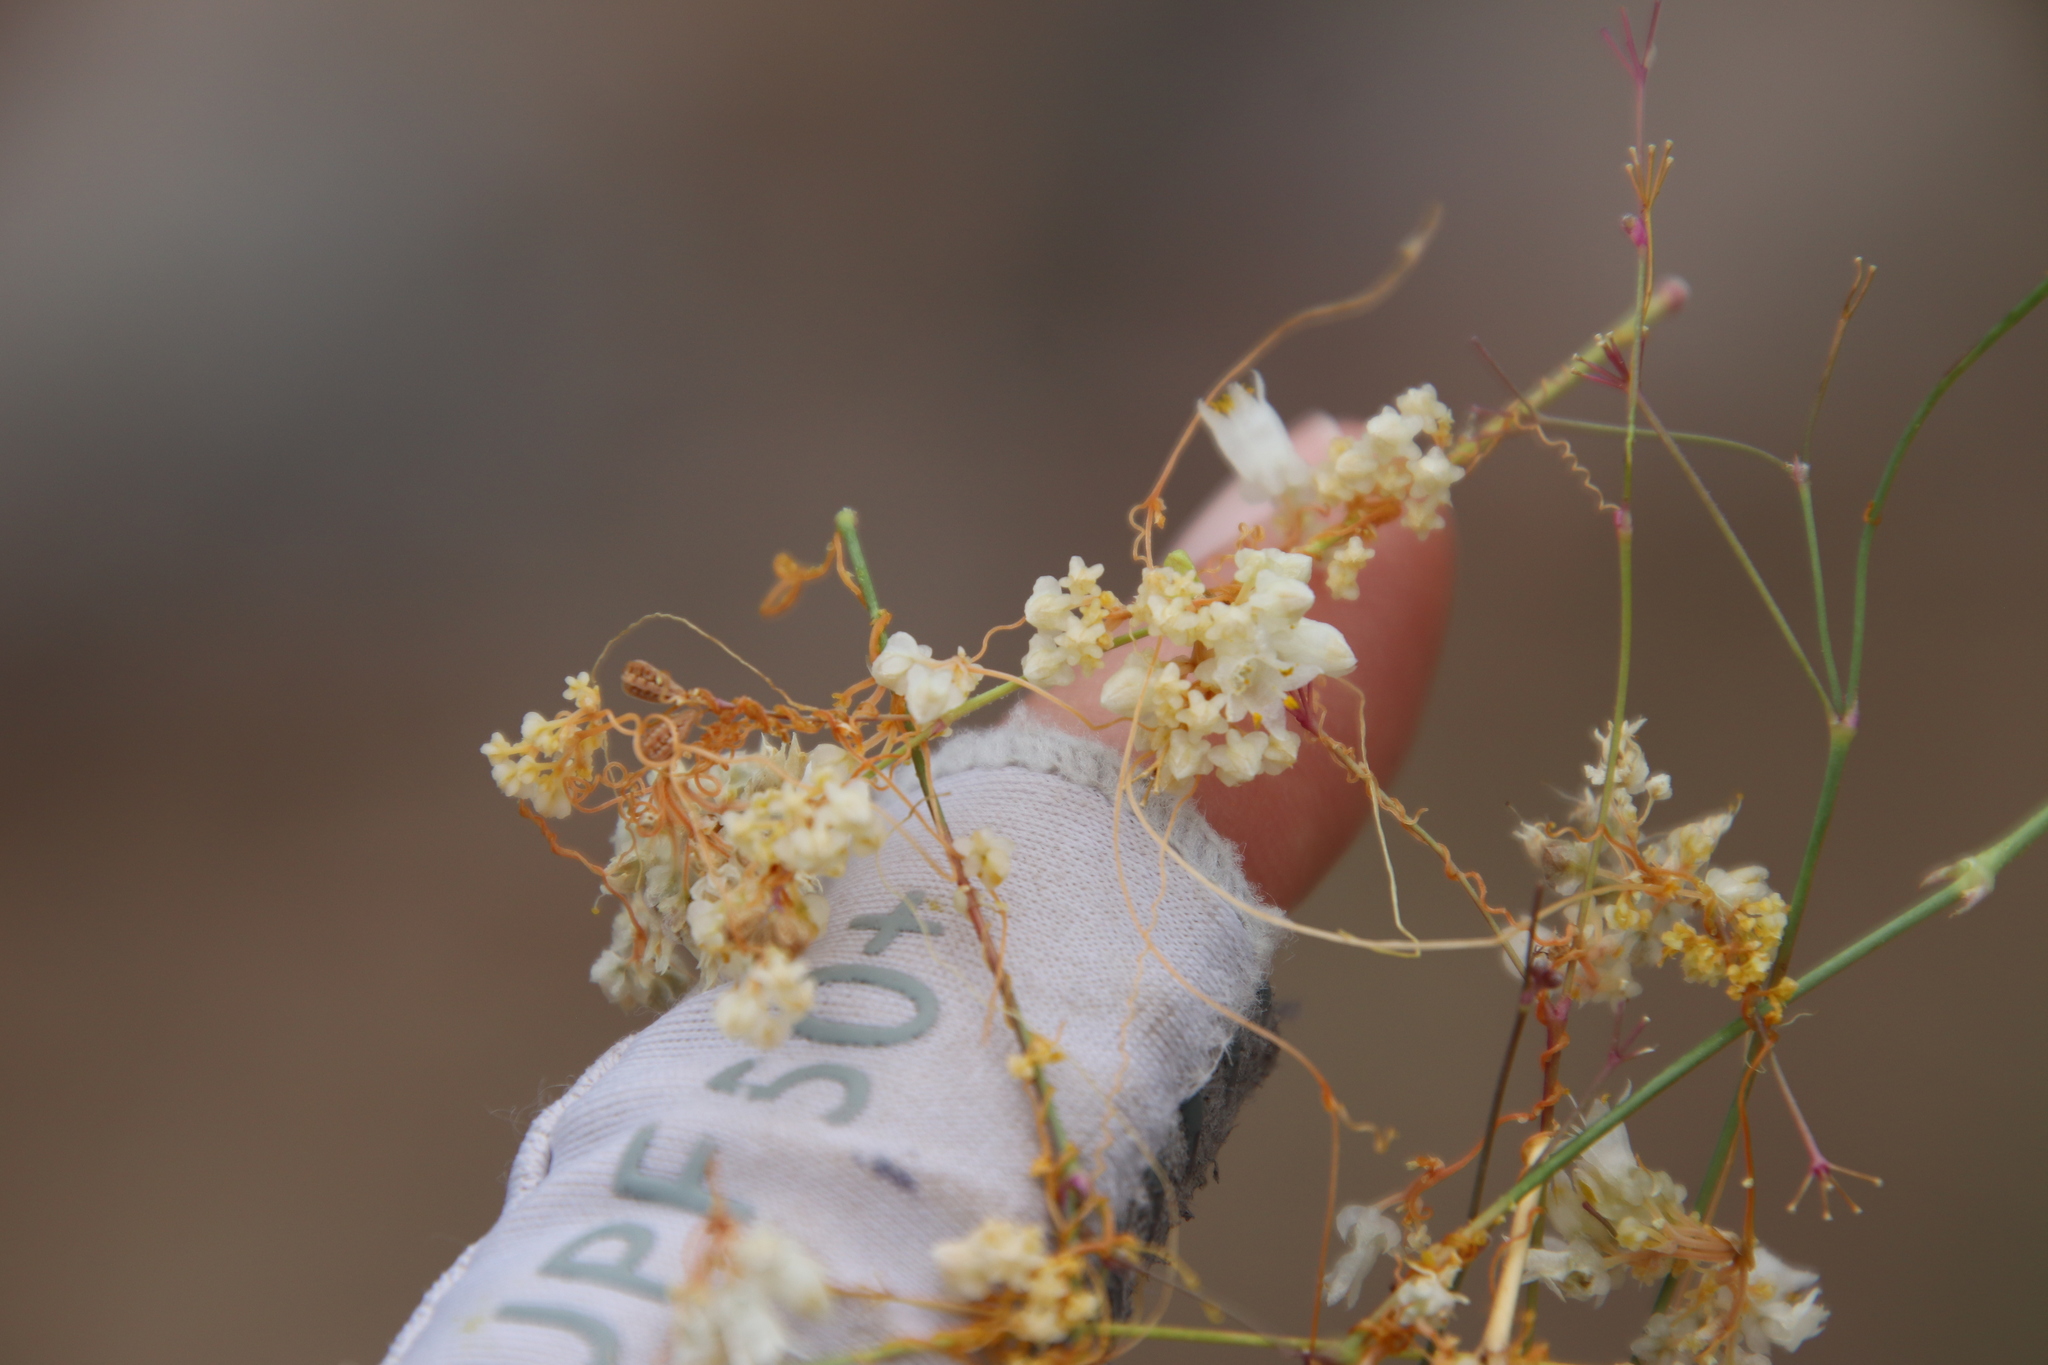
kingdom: Plantae
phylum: Tracheophyta
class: Magnoliopsida
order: Solanales
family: Convolvulaceae
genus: Cuscuta
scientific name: Cuscuta tuberculata
